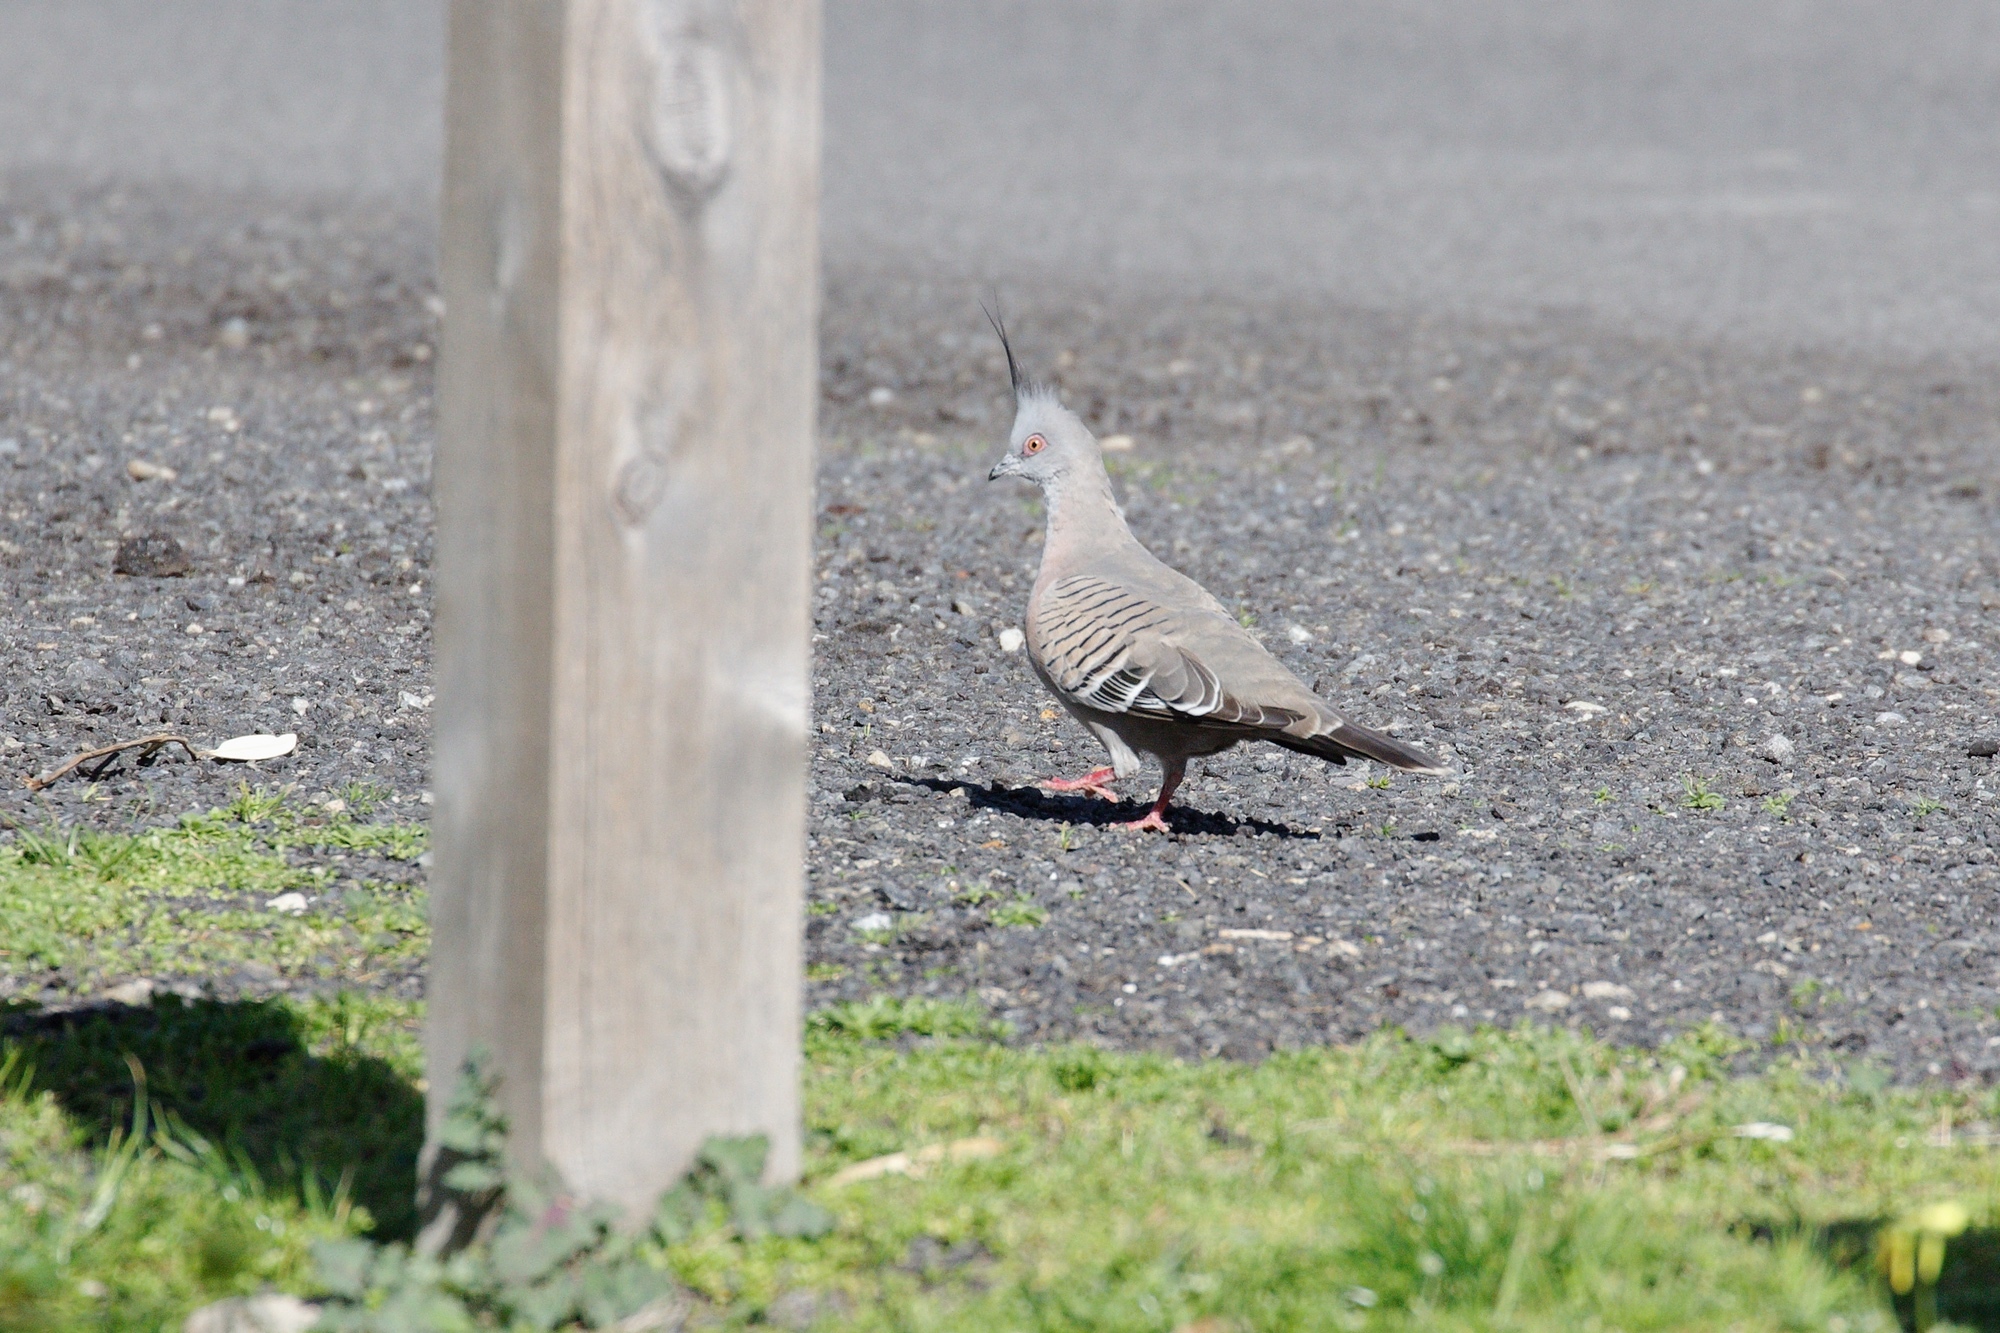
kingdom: Animalia
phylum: Chordata
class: Aves
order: Columbiformes
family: Columbidae
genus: Ocyphaps
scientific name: Ocyphaps lophotes
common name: Crested pigeon
